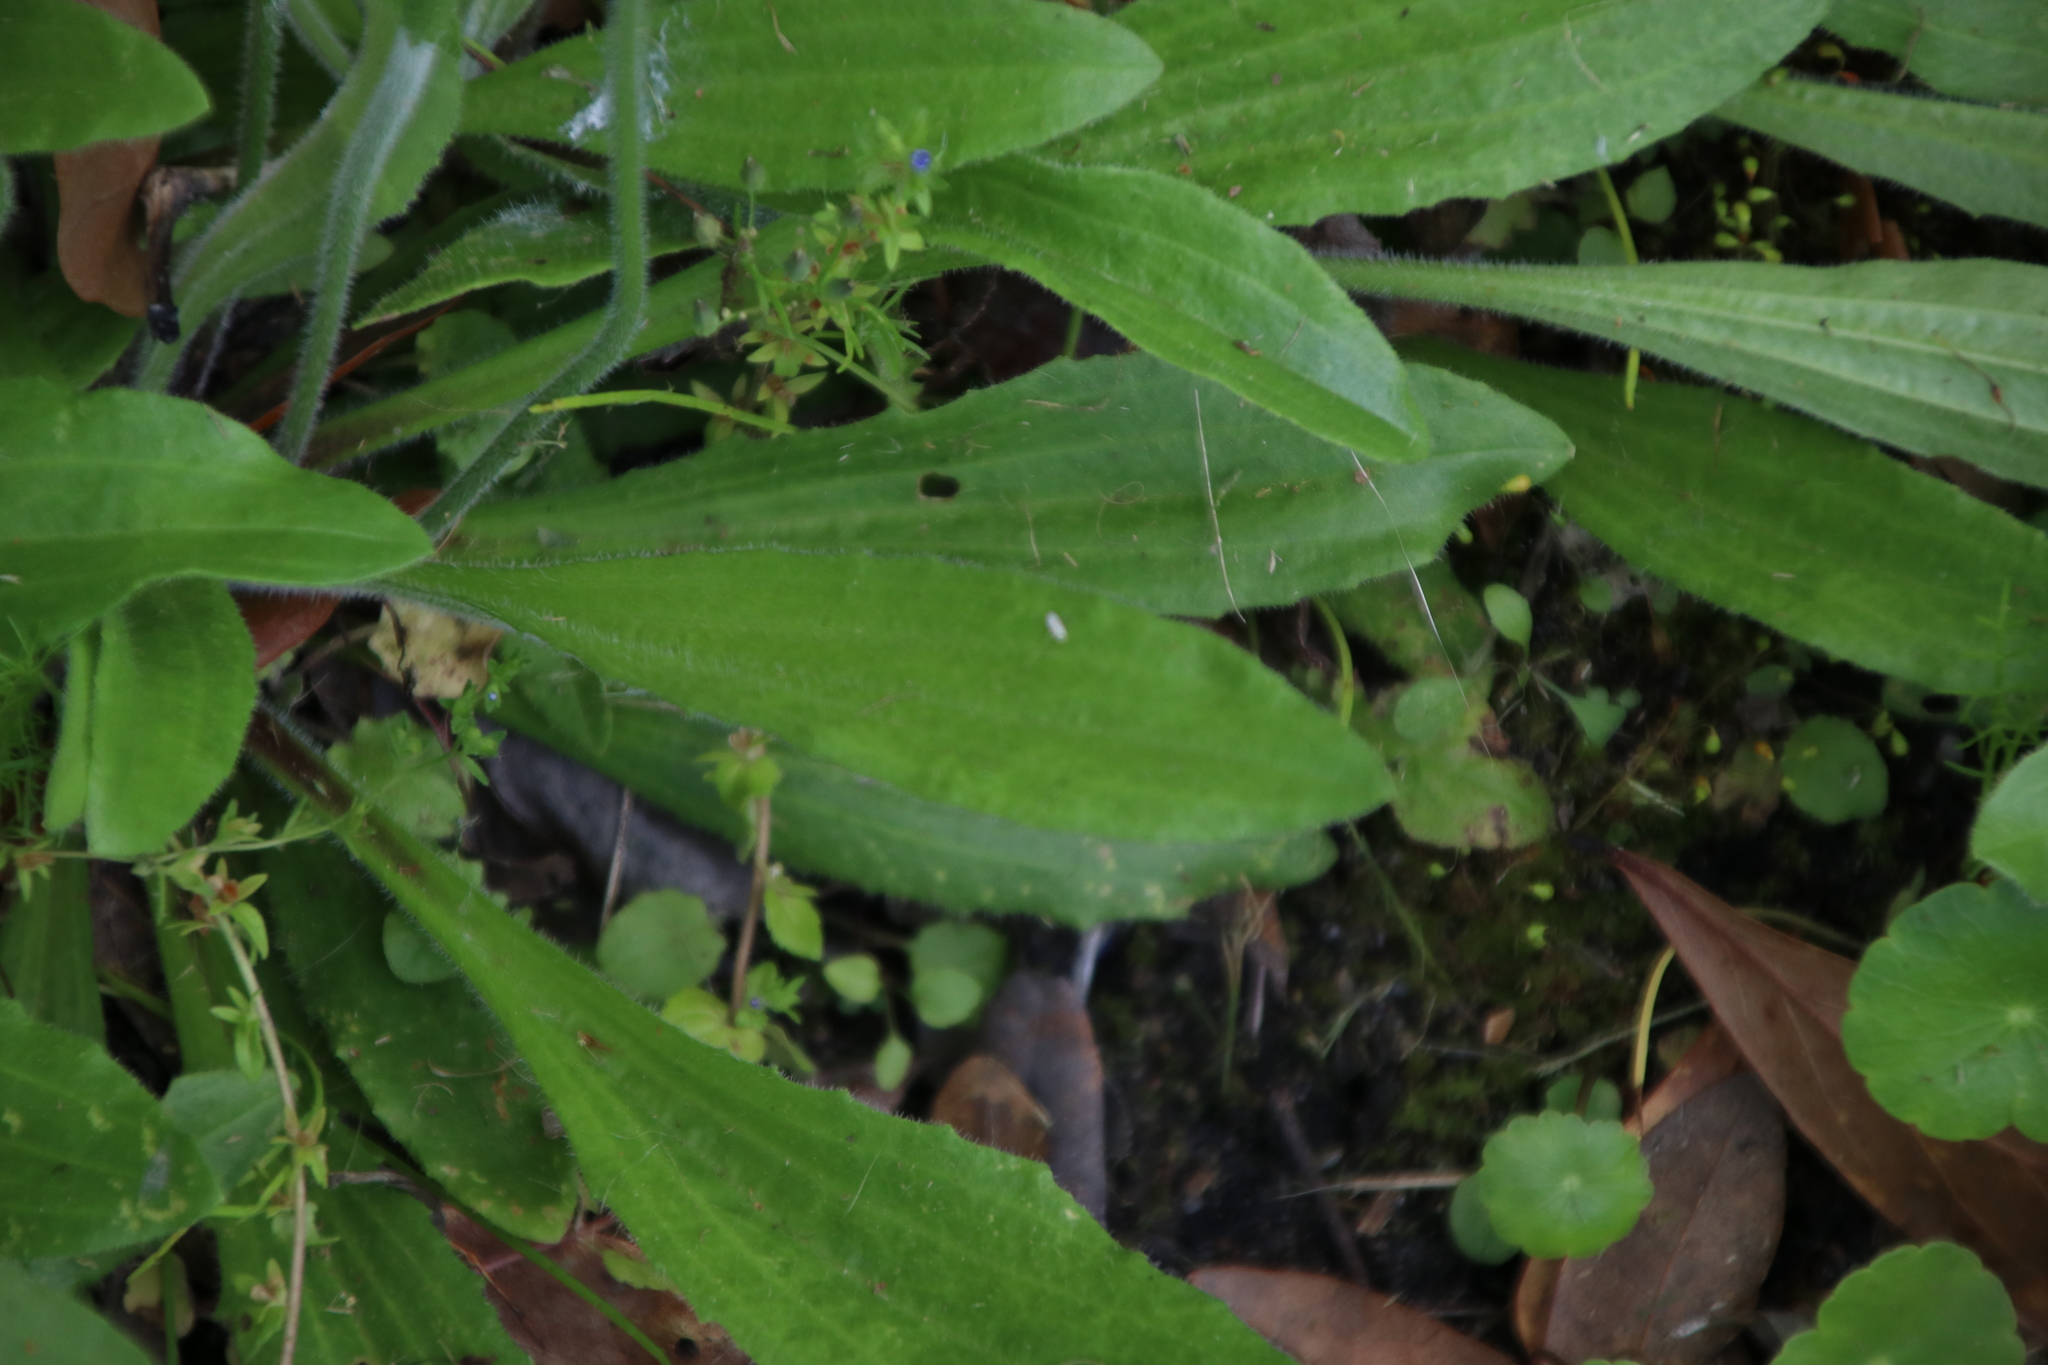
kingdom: Plantae
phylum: Tracheophyta
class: Magnoliopsida
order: Lamiales
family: Plantaginaceae
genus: Plantago
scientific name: Plantago virginica
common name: Hoary plantain
